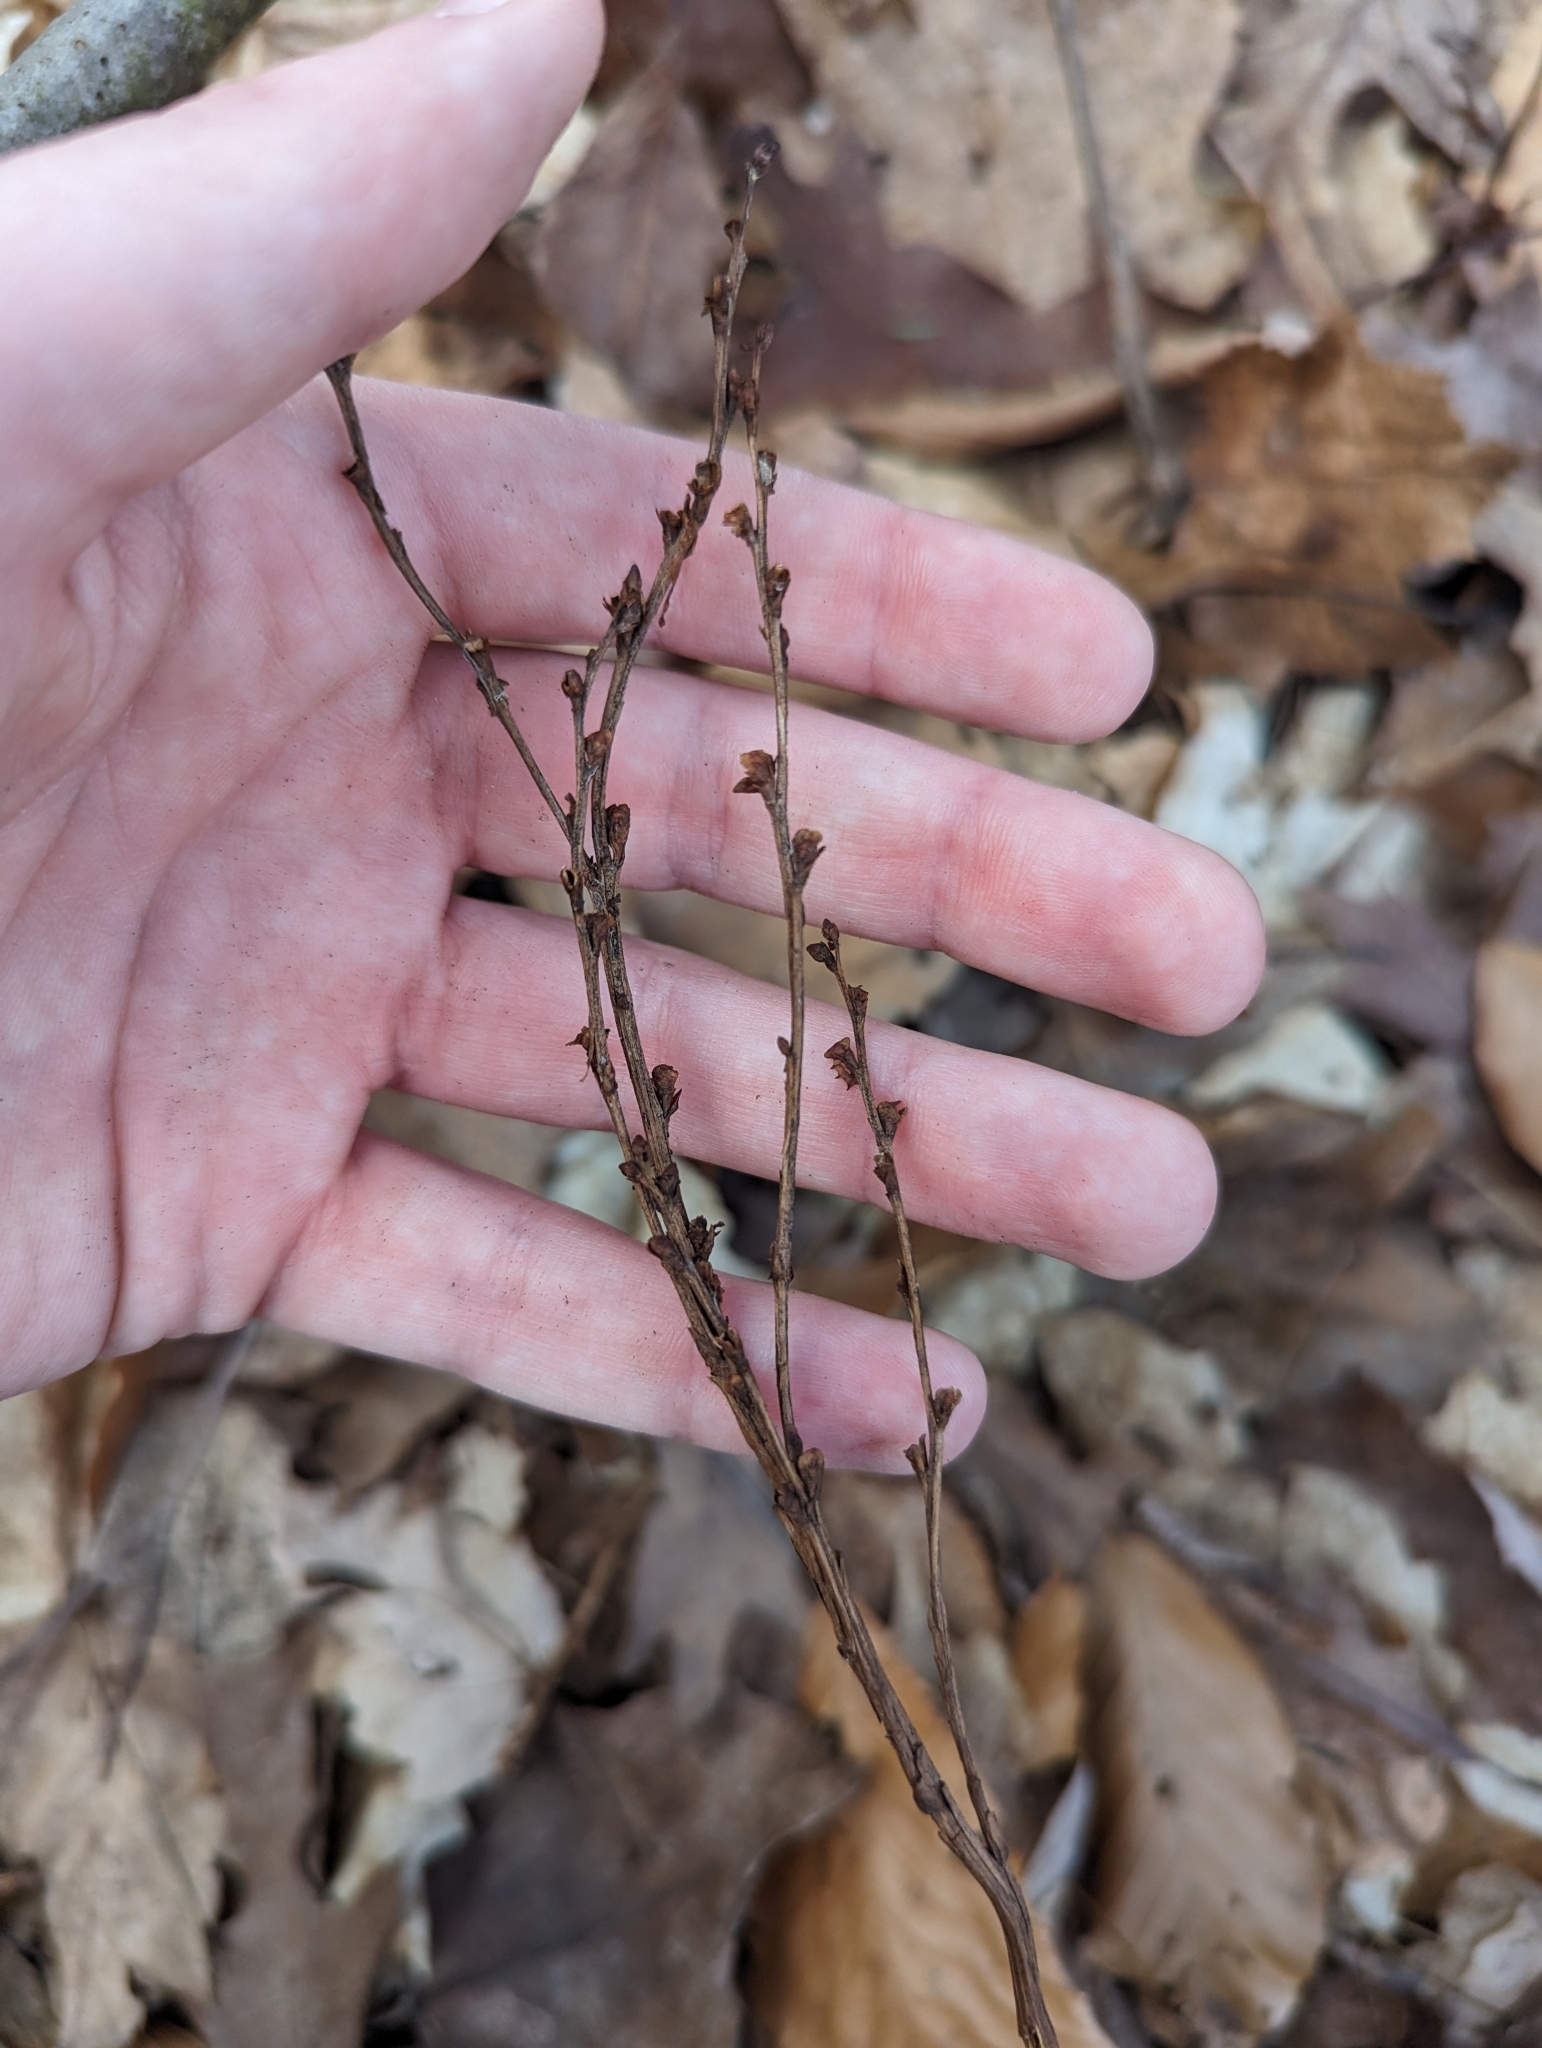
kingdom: Plantae
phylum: Tracheophyta
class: Magnoliopsida
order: Lamiales
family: Orobanchaceae
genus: Epifagus
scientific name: Epifagus virginiana
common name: Beechdrops
